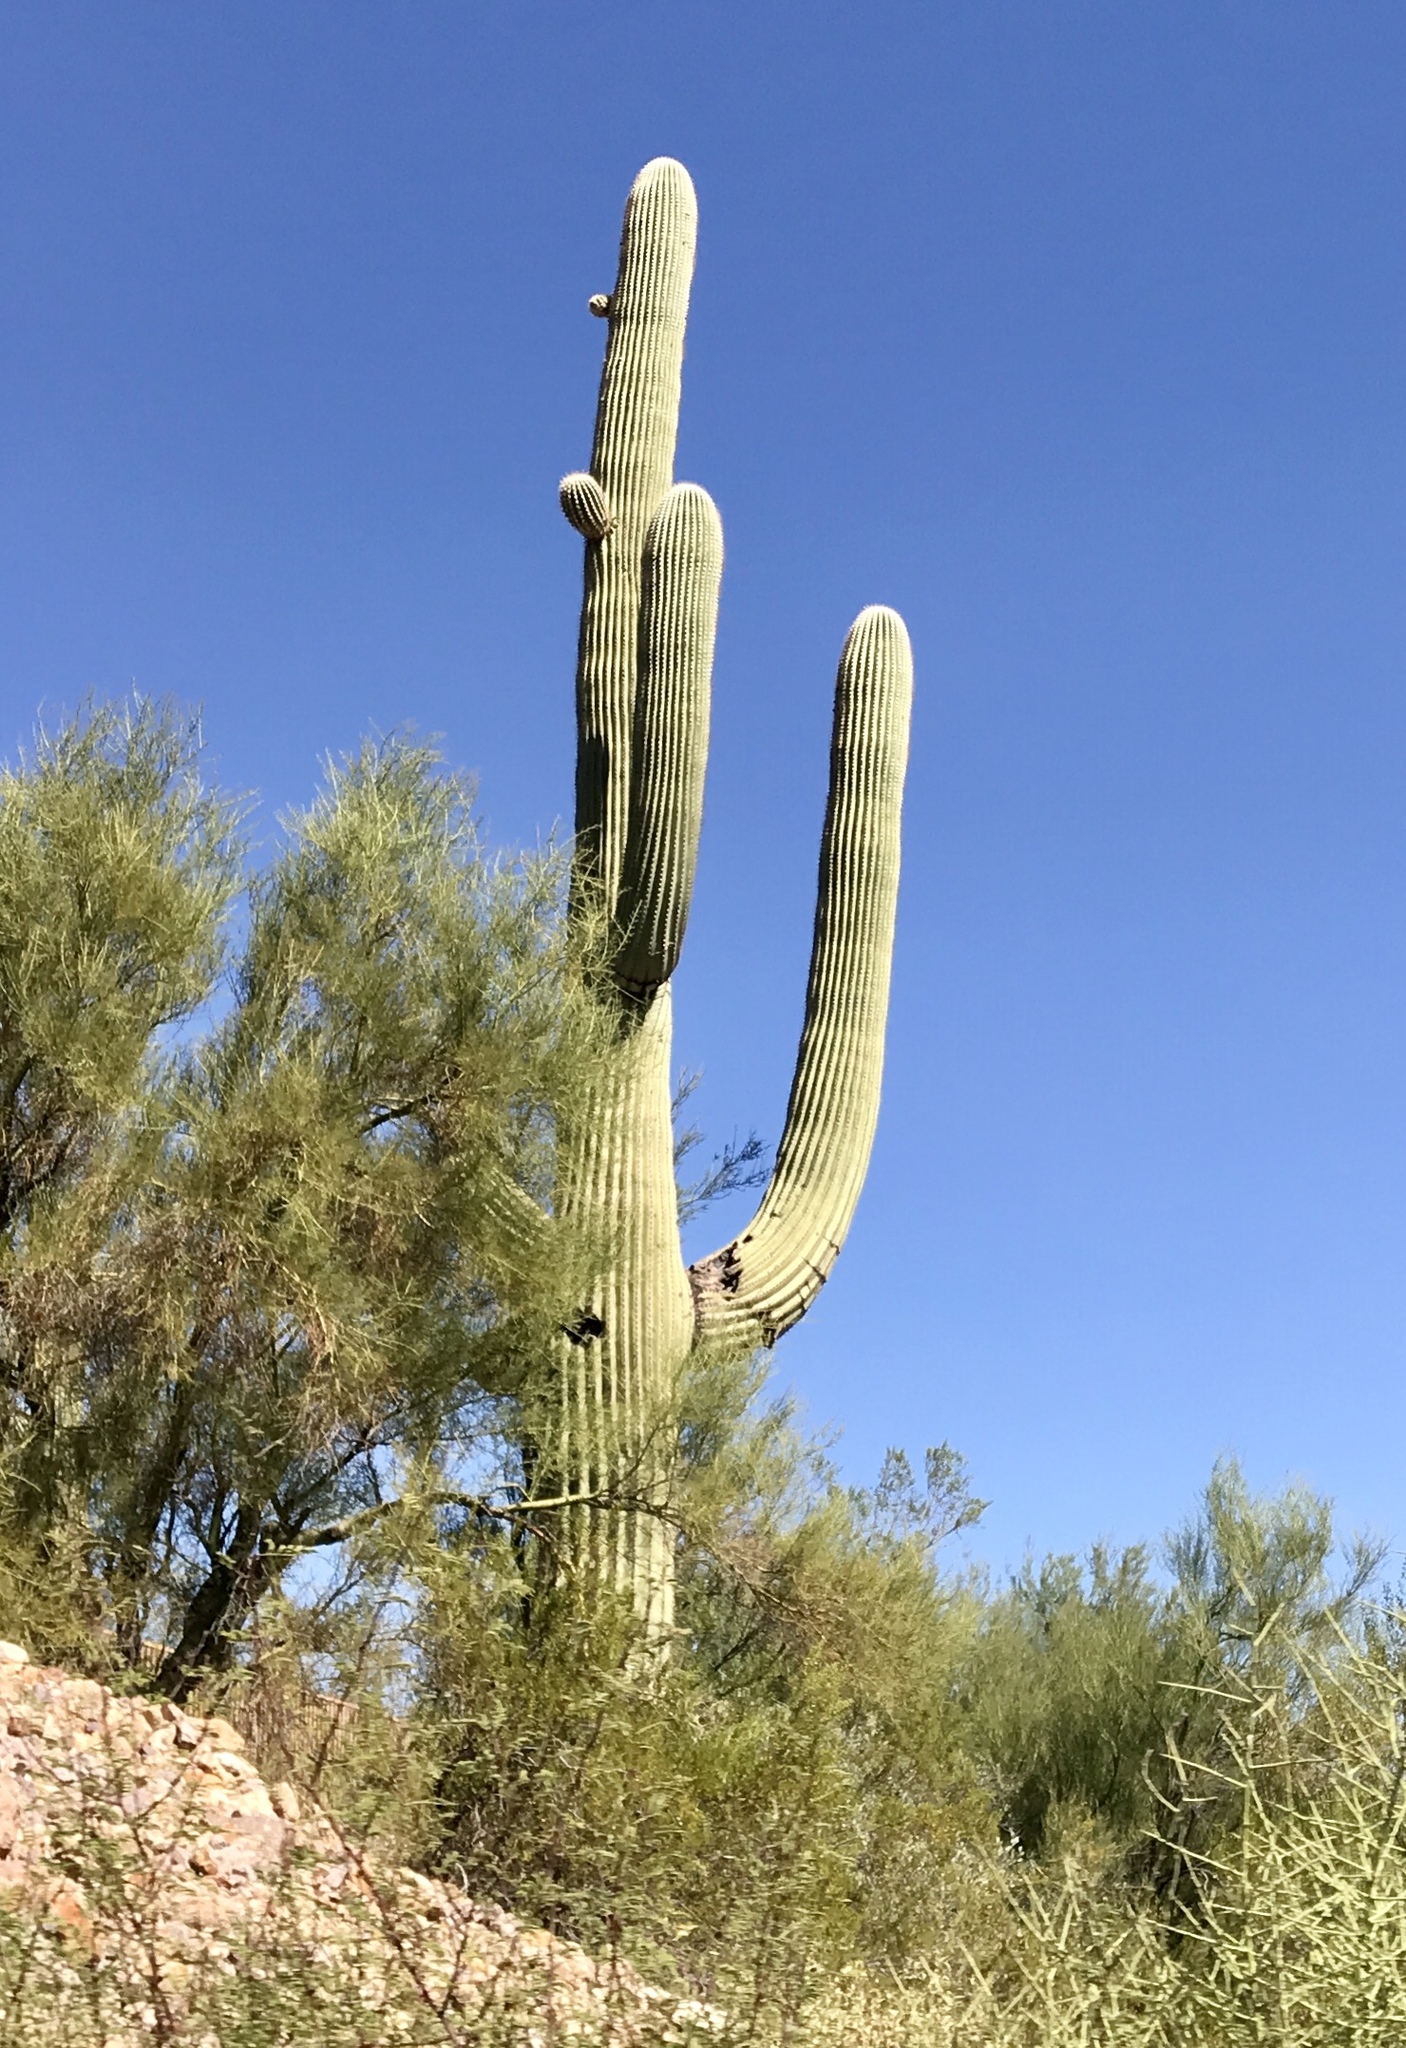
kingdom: Plantae
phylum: Tracheophyta
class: Magnoliopsida
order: Caryophyllales
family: Cactaceae
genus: Carnegiea
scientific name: Carnegiea gigantea
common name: Saguaro
